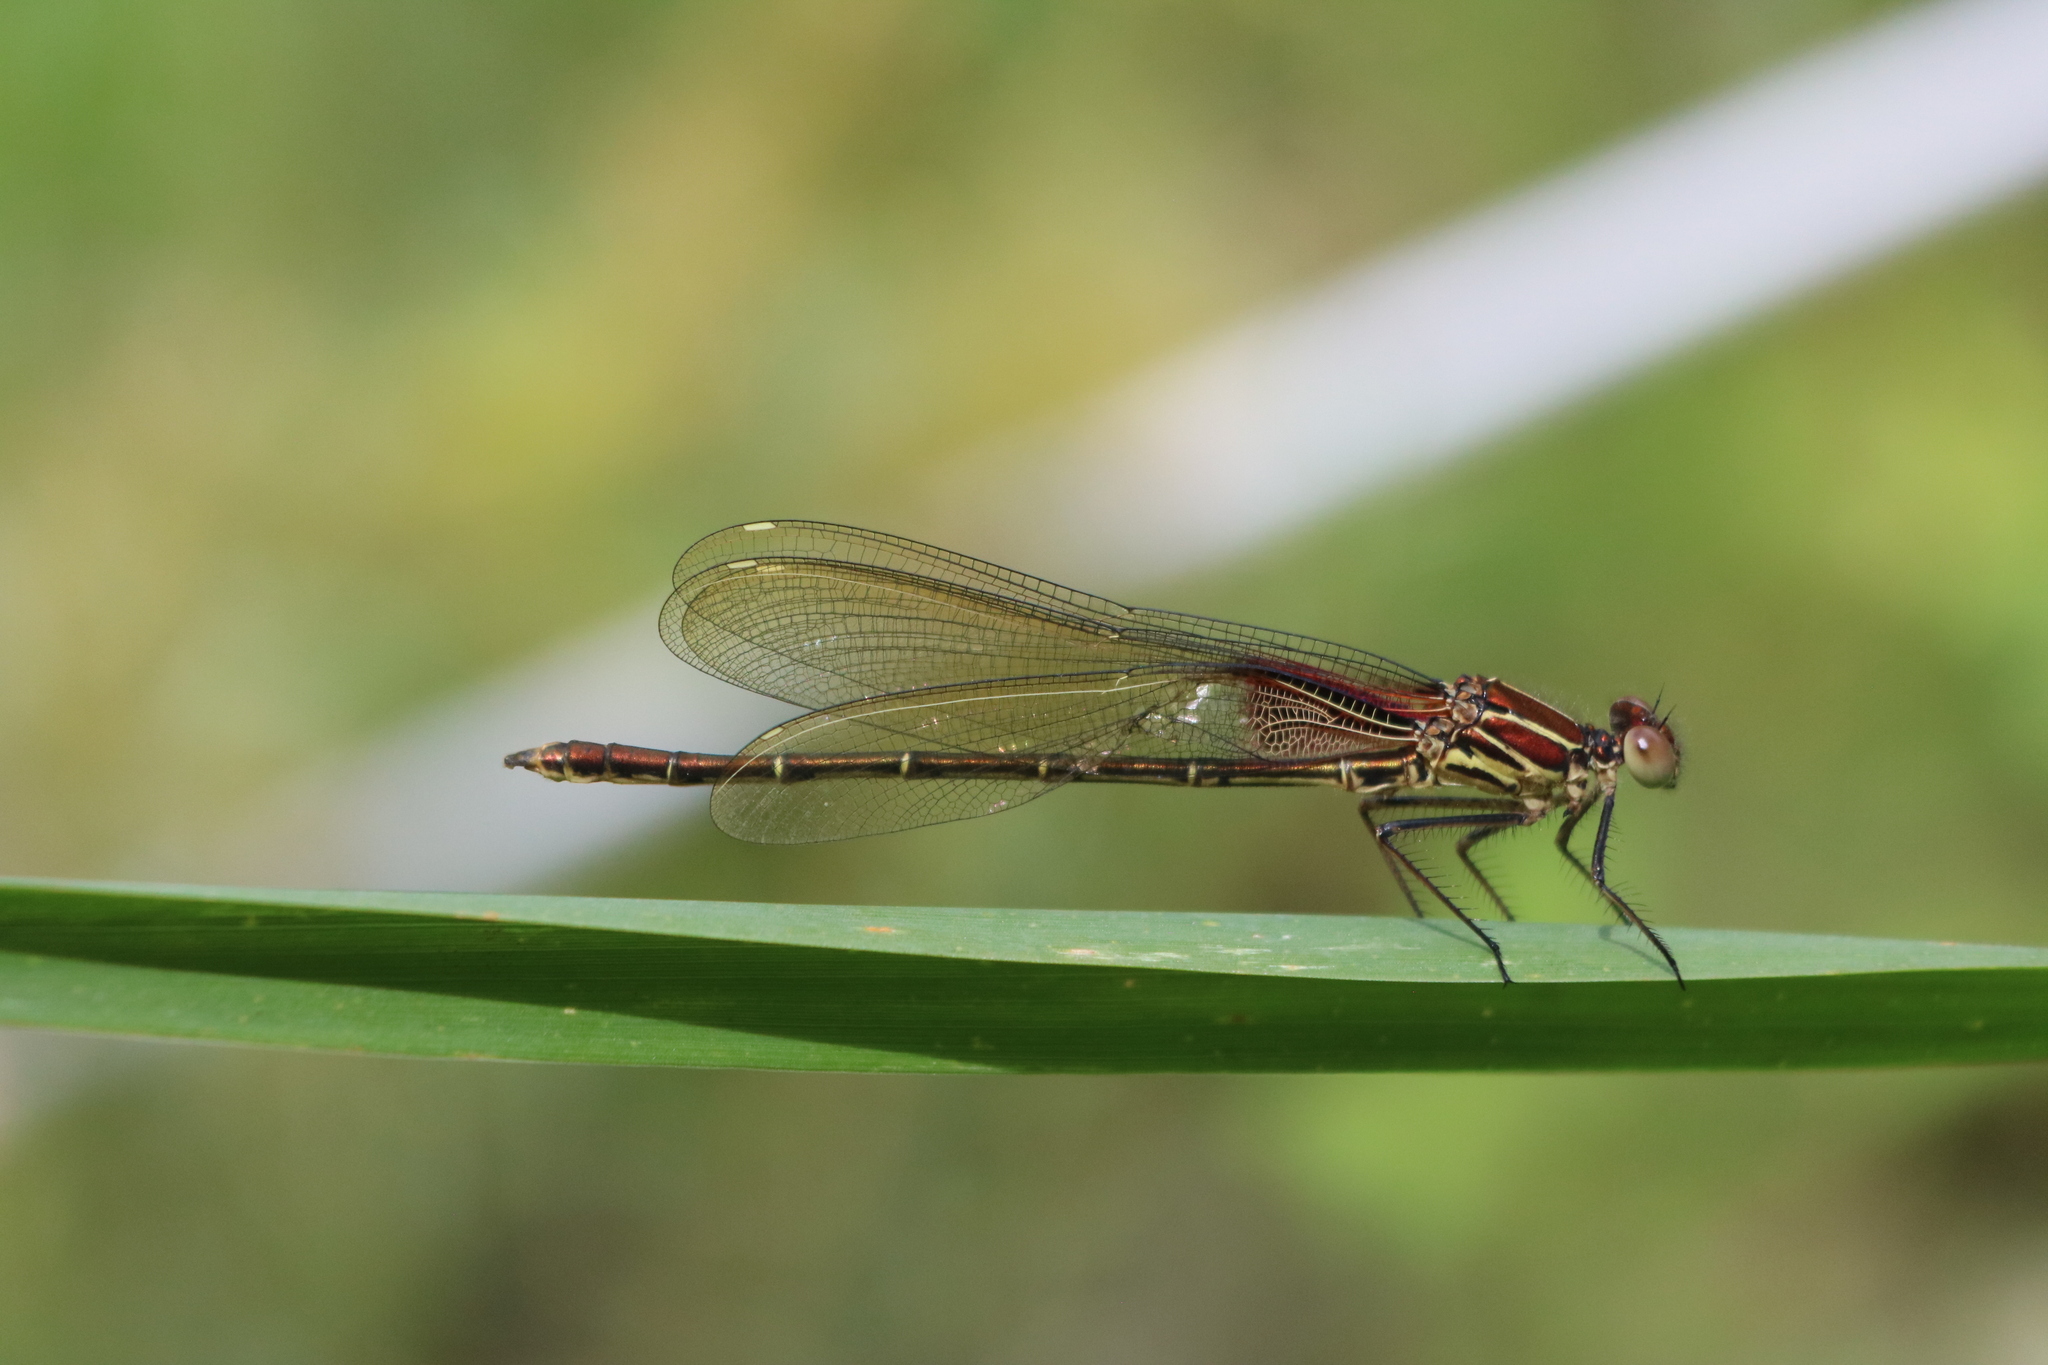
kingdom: Animalia
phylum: Arthropoda
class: Insecta
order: Odonata
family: Calopterygidae
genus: Hetaerina
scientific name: Hetaerina americana
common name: American rubyspot
